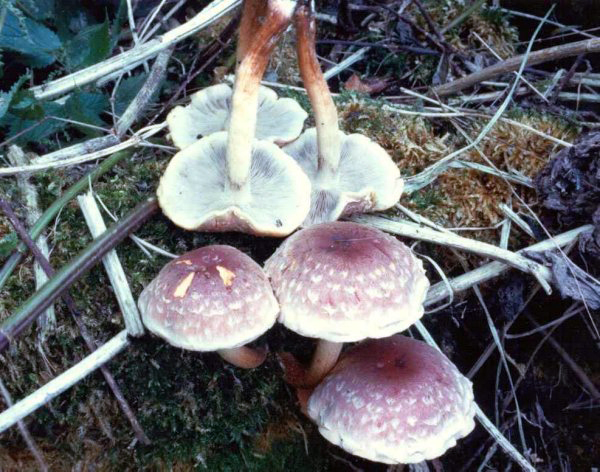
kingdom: Fungi
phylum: Basidiomycota
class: Agaricomycetes
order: Agaricales
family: Strophariaceae
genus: Hypholoma
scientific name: Hypholoma lateritium
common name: Brick caps
